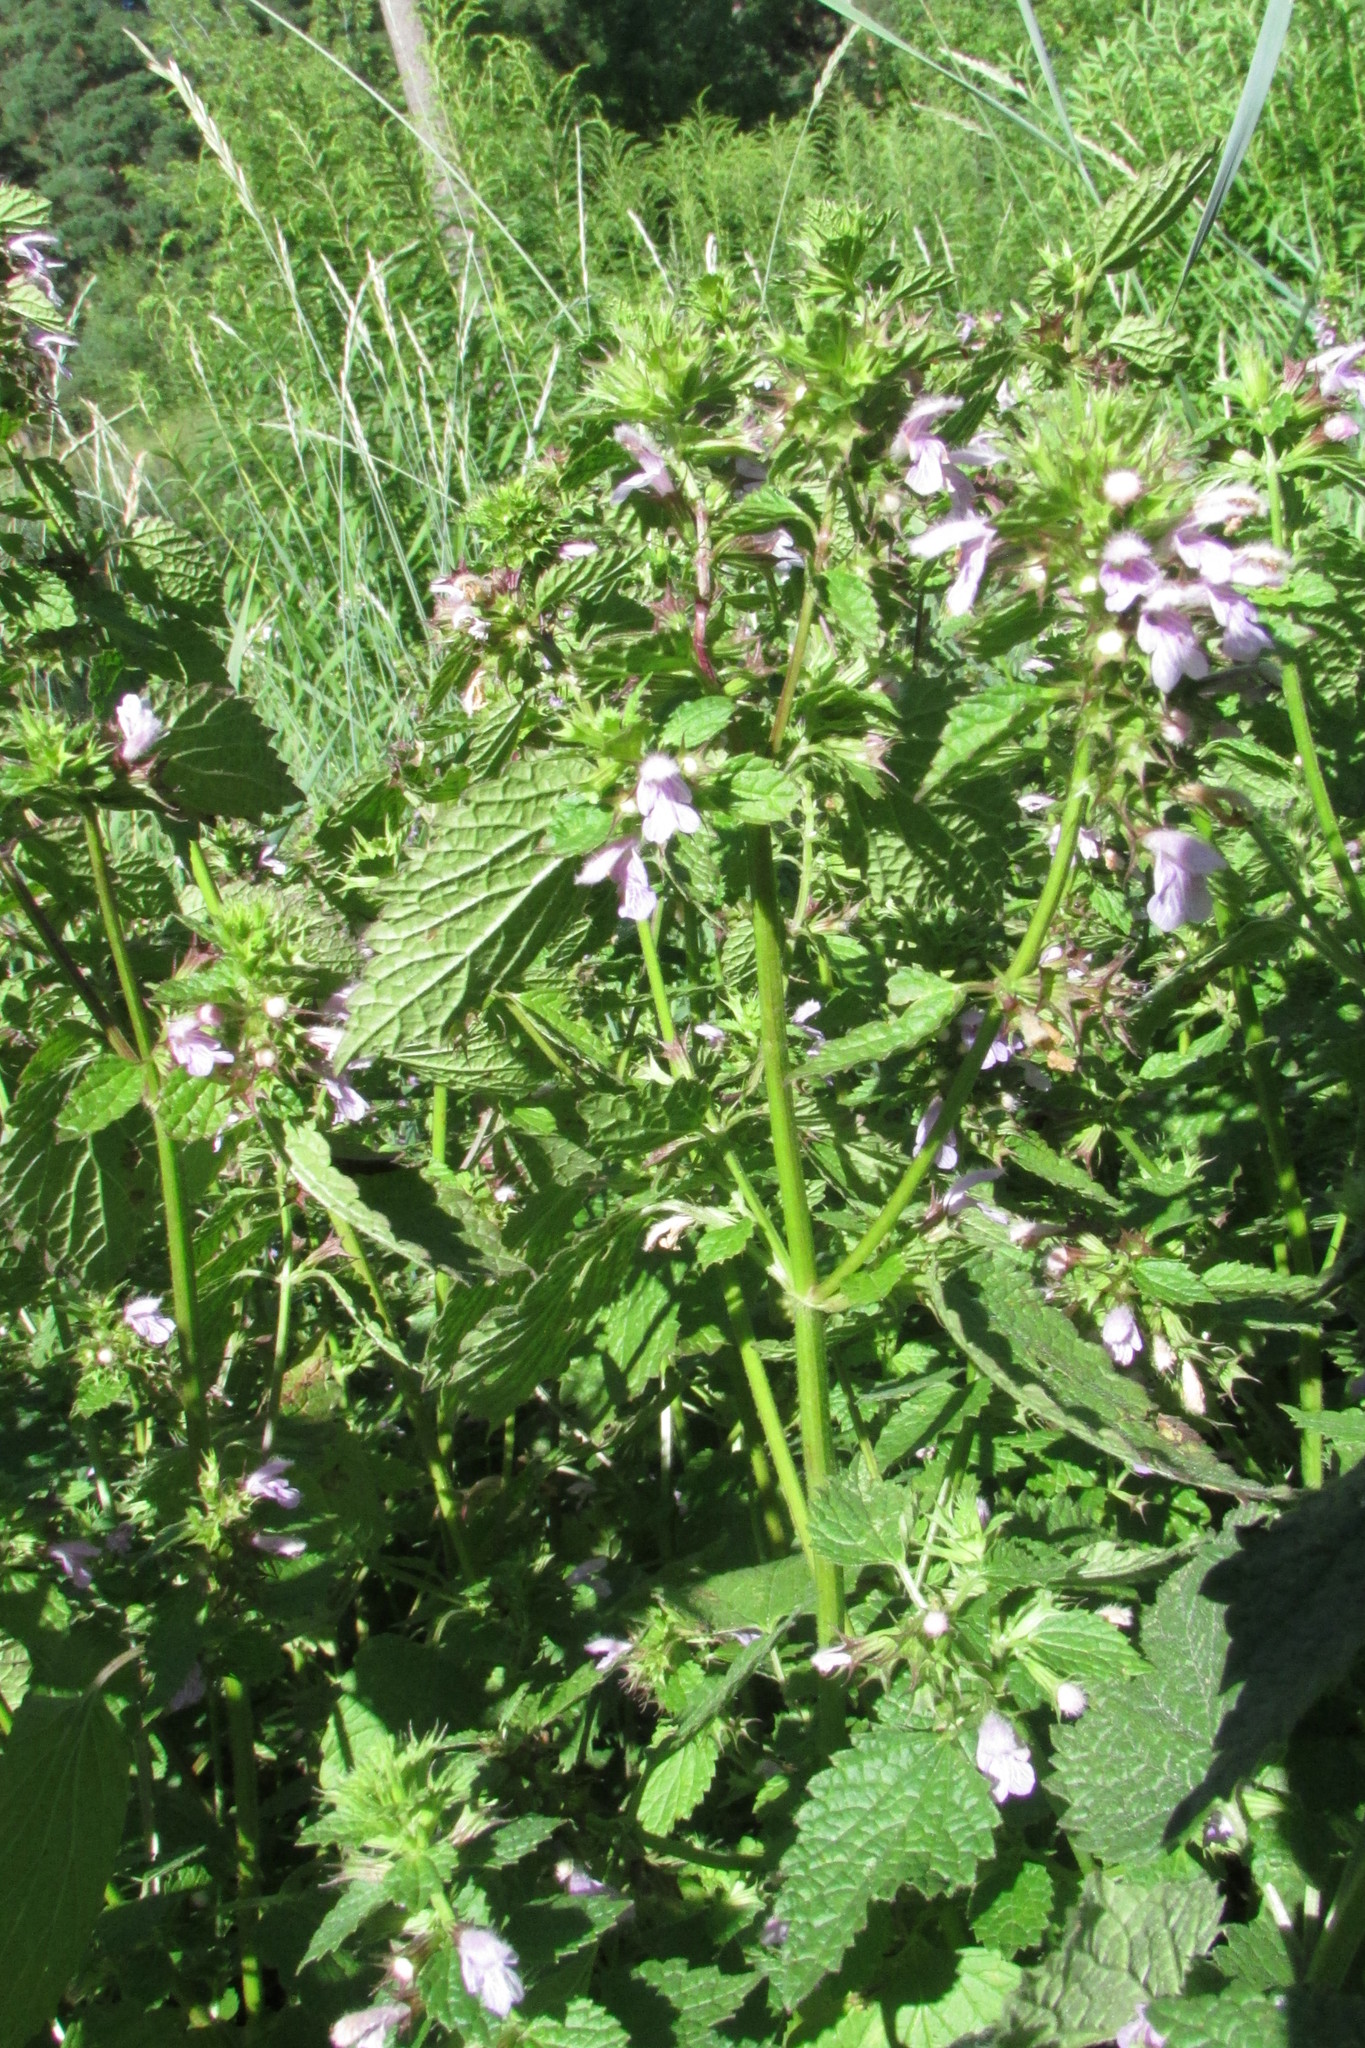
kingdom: Plantae
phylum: Tracheophyta
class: Magnoliopsida
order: Lamiales
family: Lamiaceae
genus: Ballota
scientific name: Ballota nigra
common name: Black horehound
